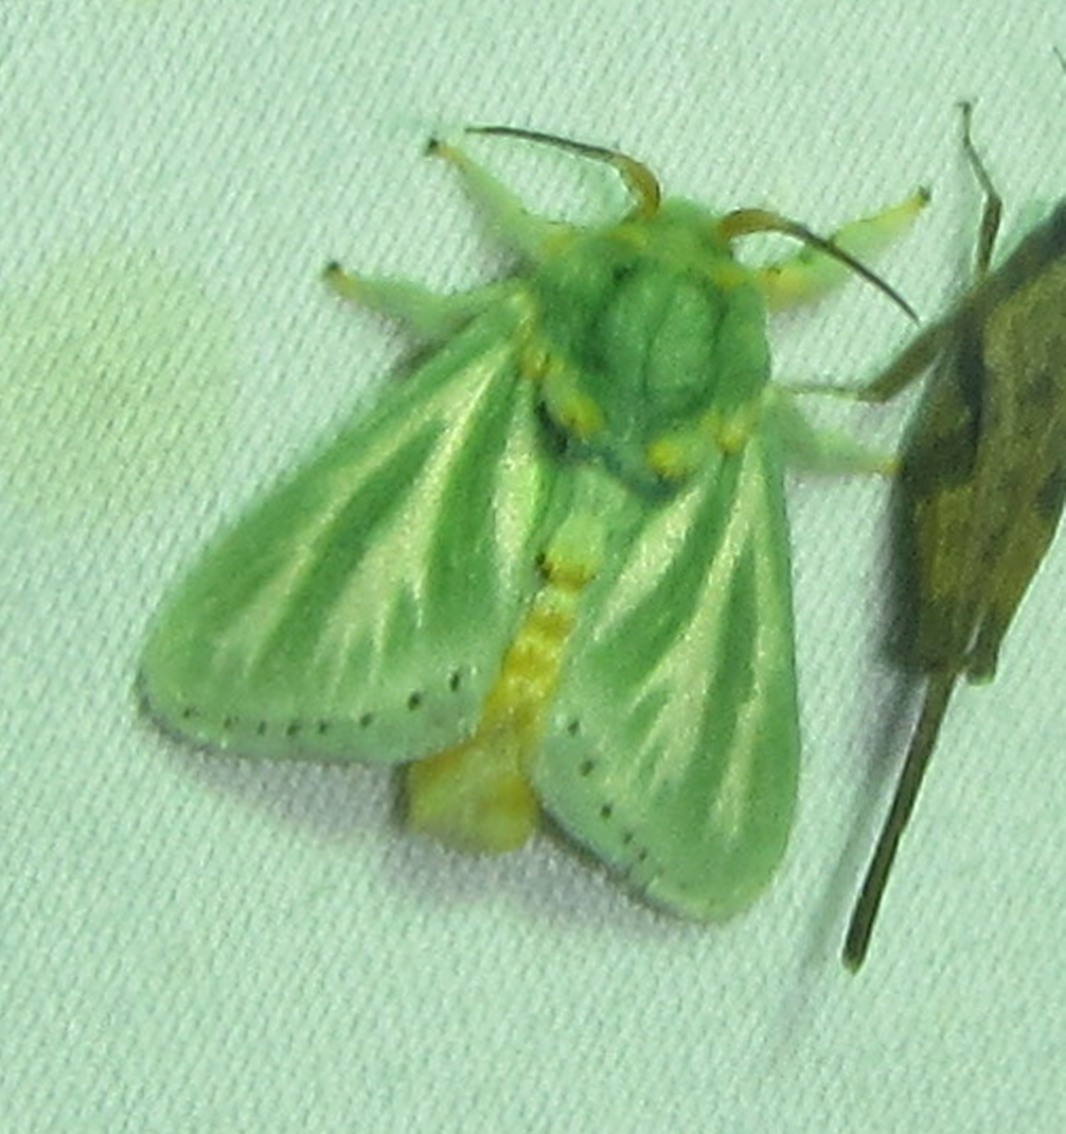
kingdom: Animalia
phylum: Arthropoda
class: Insecta
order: Lepidoptera
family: Limacodidae
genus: Coenobasis
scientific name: Coenobasis albiramosa
